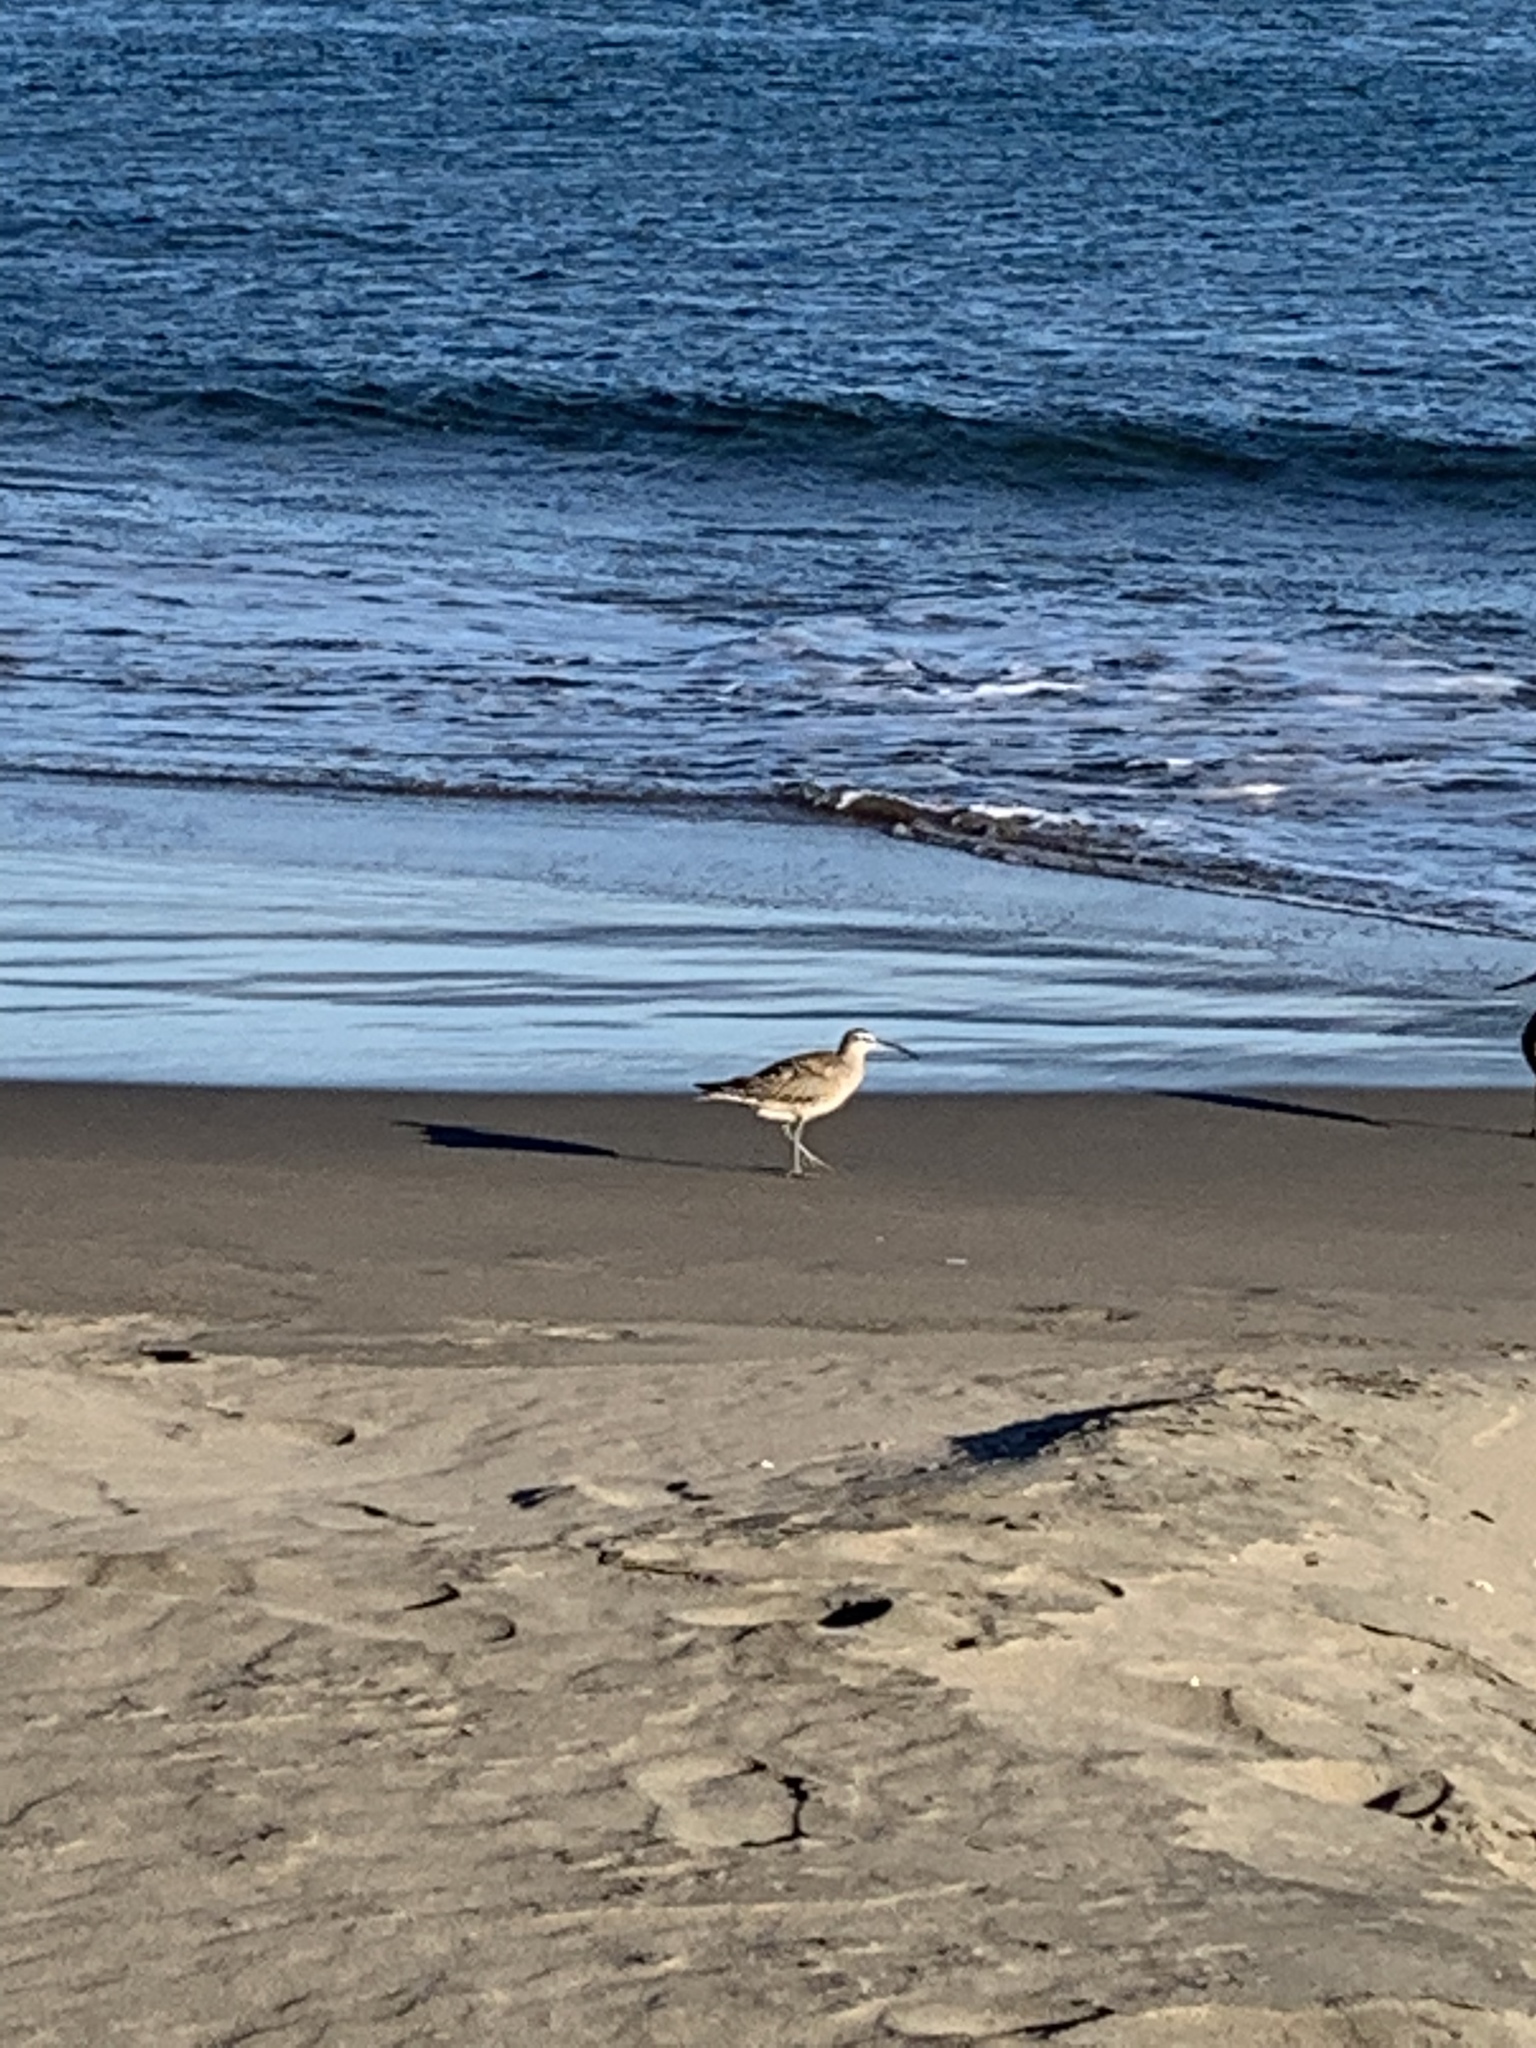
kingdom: Animalia
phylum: Chordata
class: Aves
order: Charadriiformes
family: Scolopacidae
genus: Numenius
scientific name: Numenius phaeopus
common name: Whimbrel
